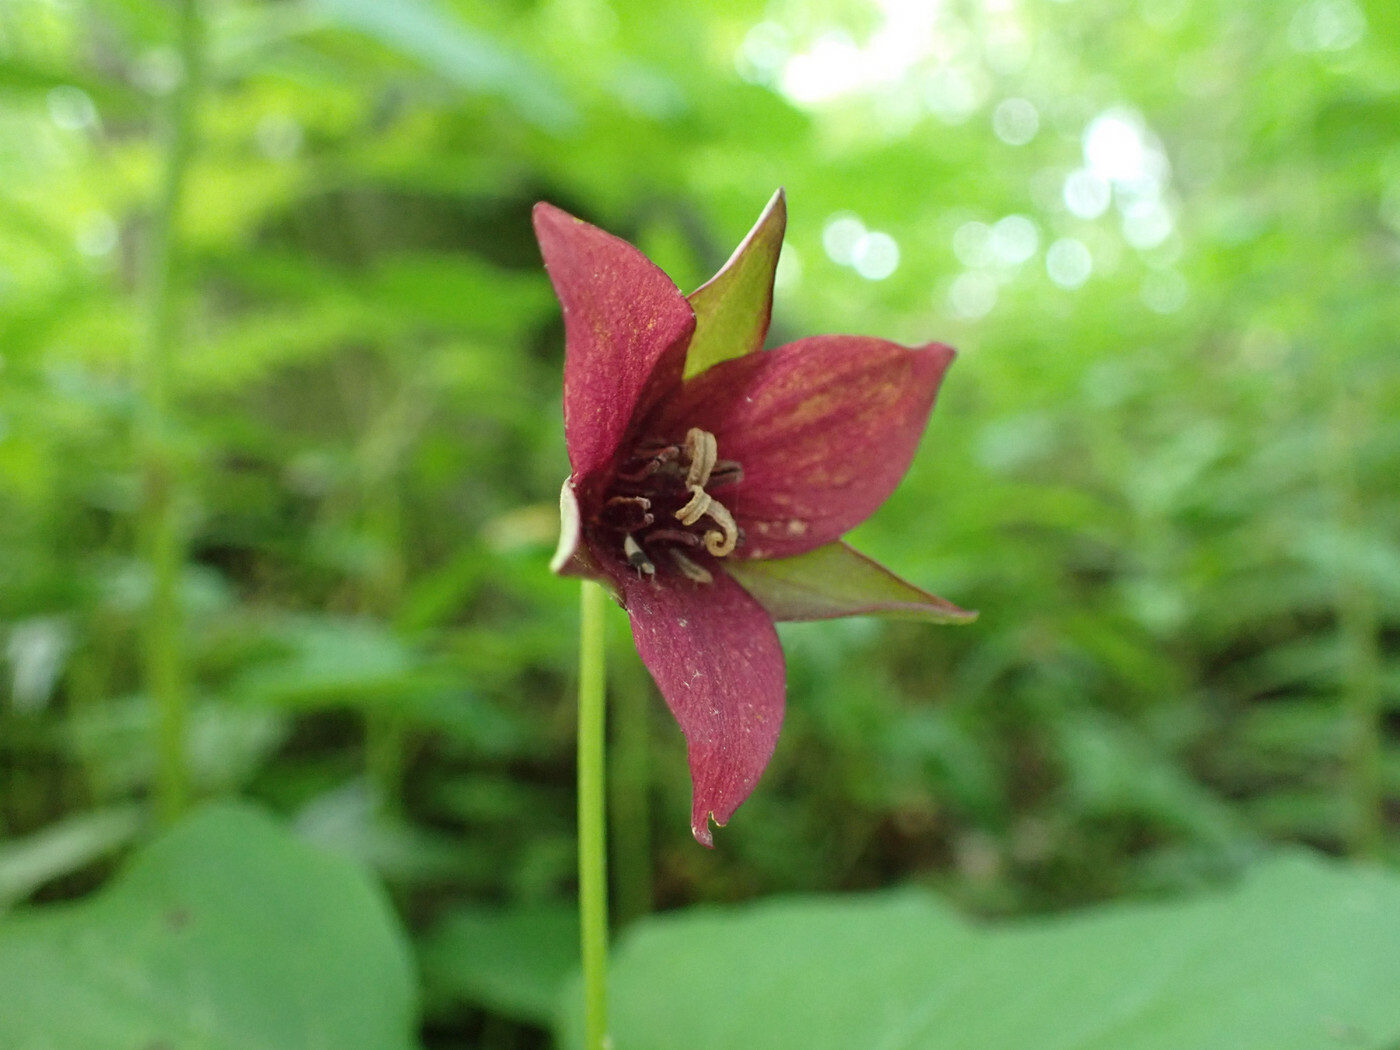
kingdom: Plantae
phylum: Tracheophyta
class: Liliopsida
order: Liliales
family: Melanthiaceae
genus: Trillium
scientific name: Trillium sulcatum
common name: Barksdale trillium
